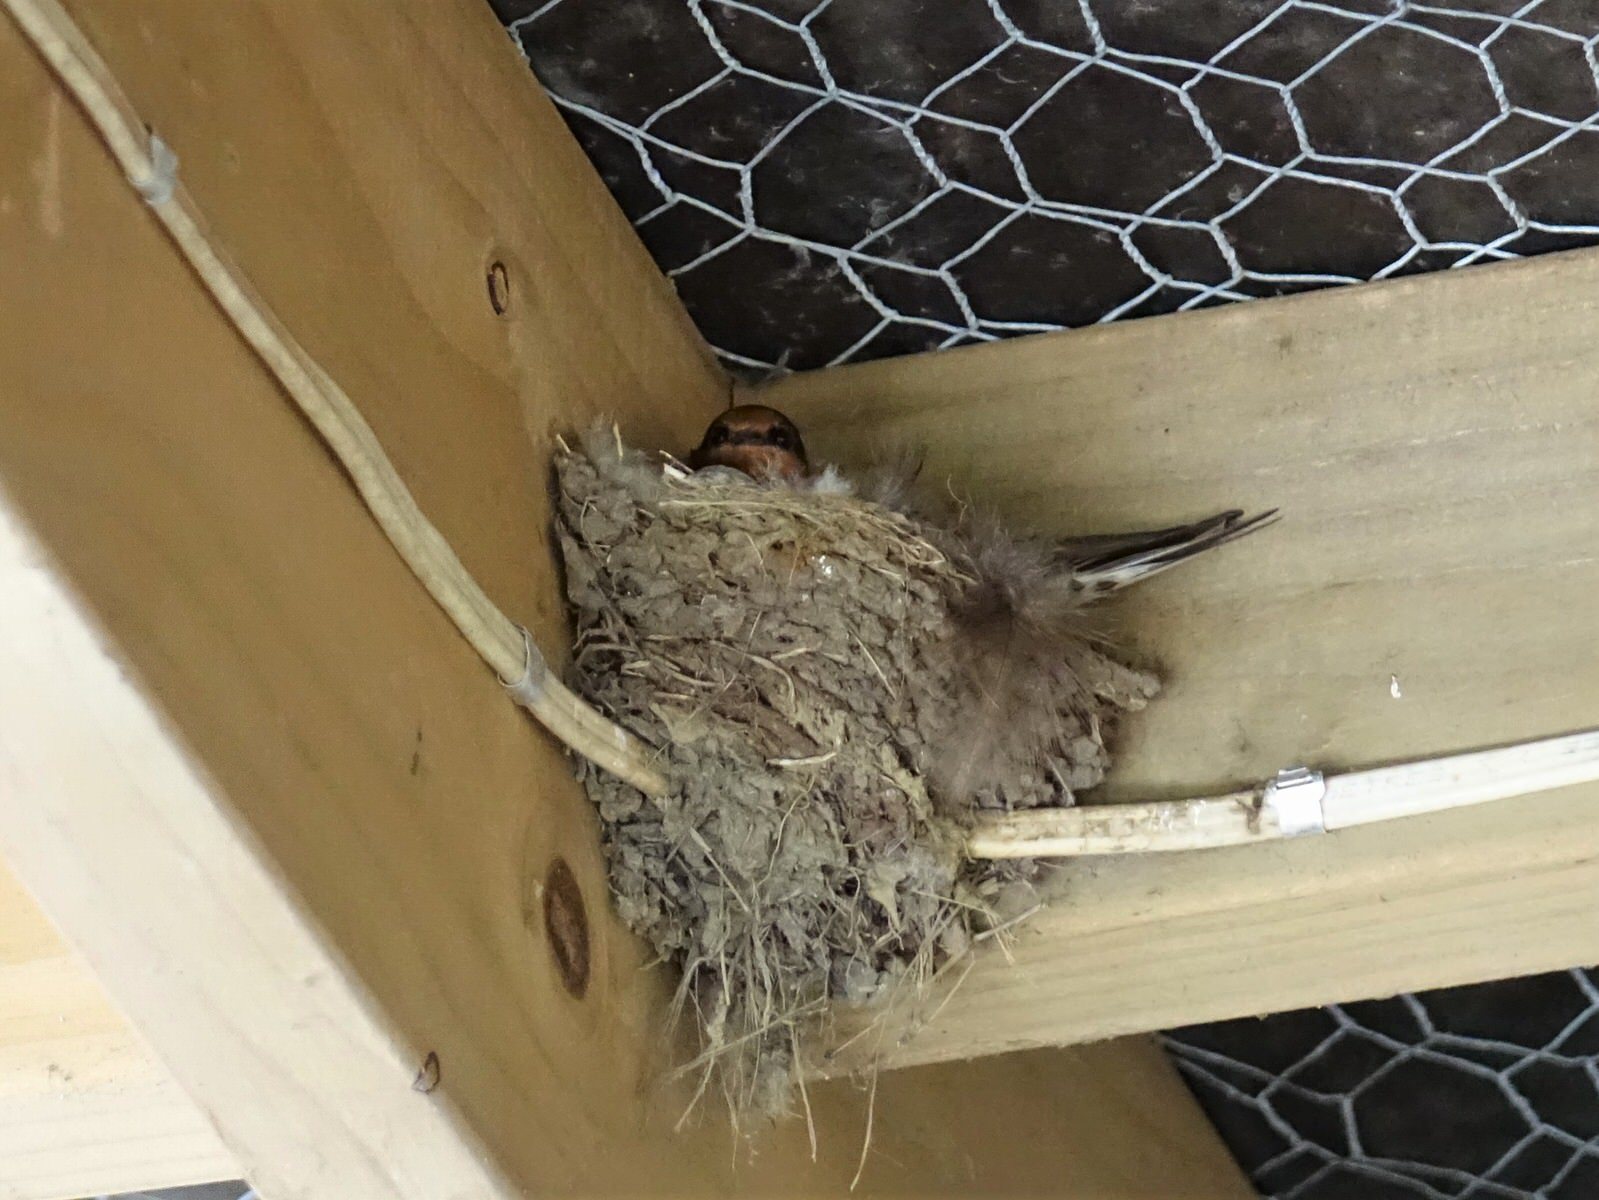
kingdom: Animalia
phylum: Chordata
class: Aves
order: Passeriformes
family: Hirundinidae
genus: Hirundo
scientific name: Hirundo neoxena
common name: Welcome swallow
